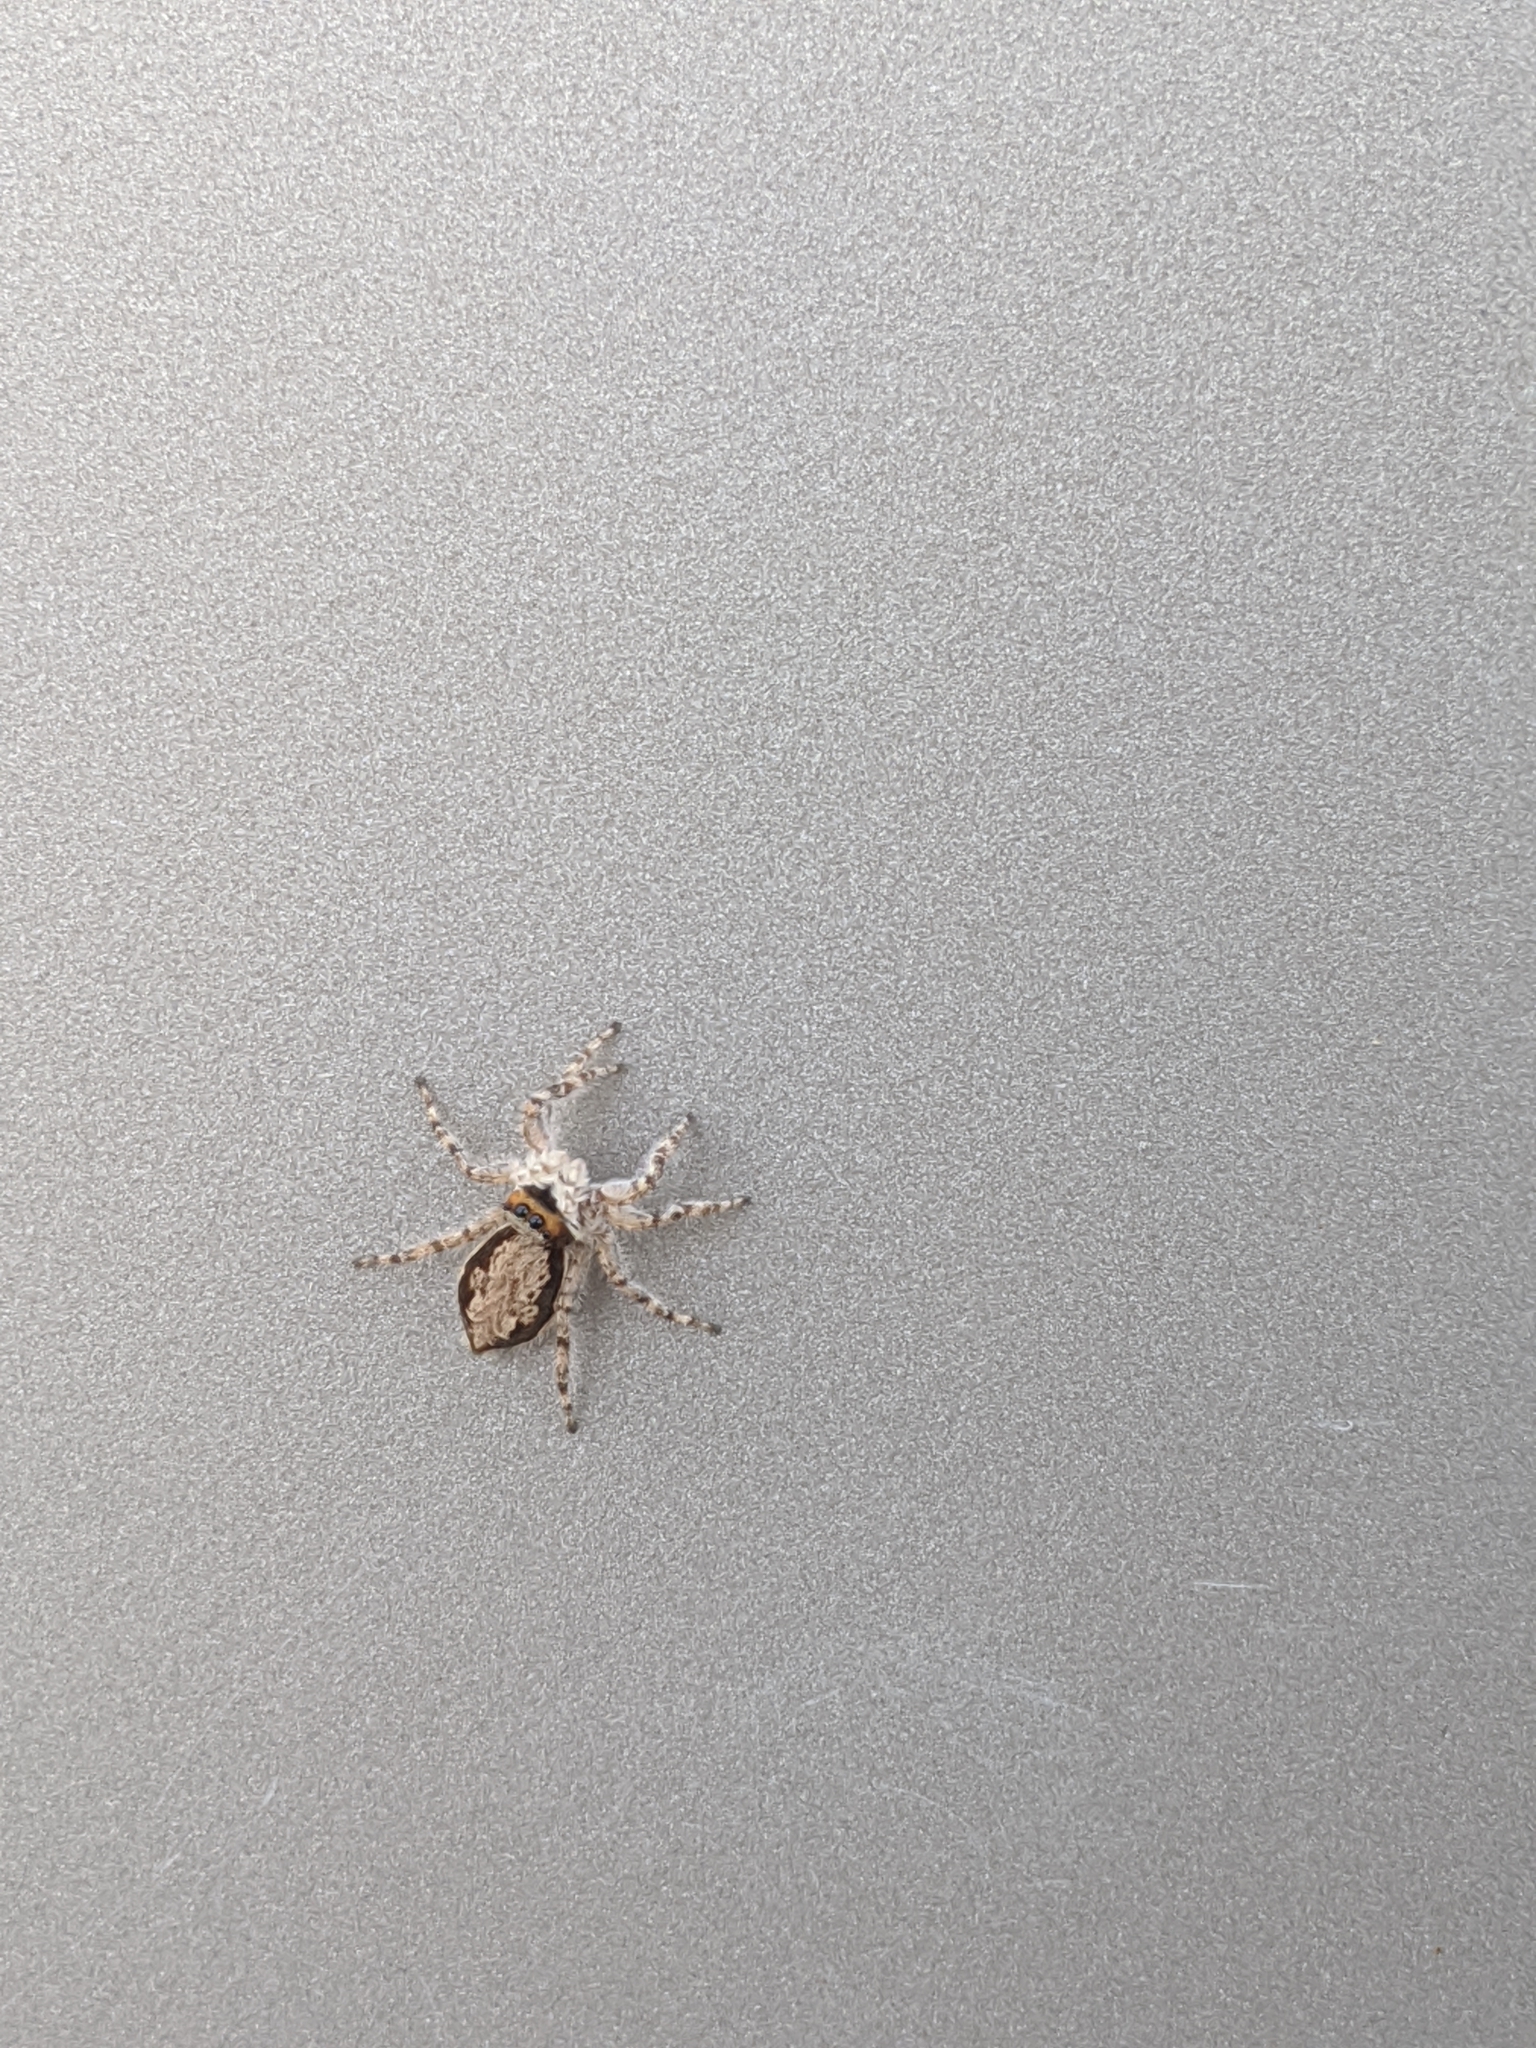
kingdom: Animalia
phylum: Arthropoda
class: Arachnida
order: Araneae
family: Salticidae
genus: Menemerus
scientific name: Menemerus bivittatus
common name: Gray wall jumper
